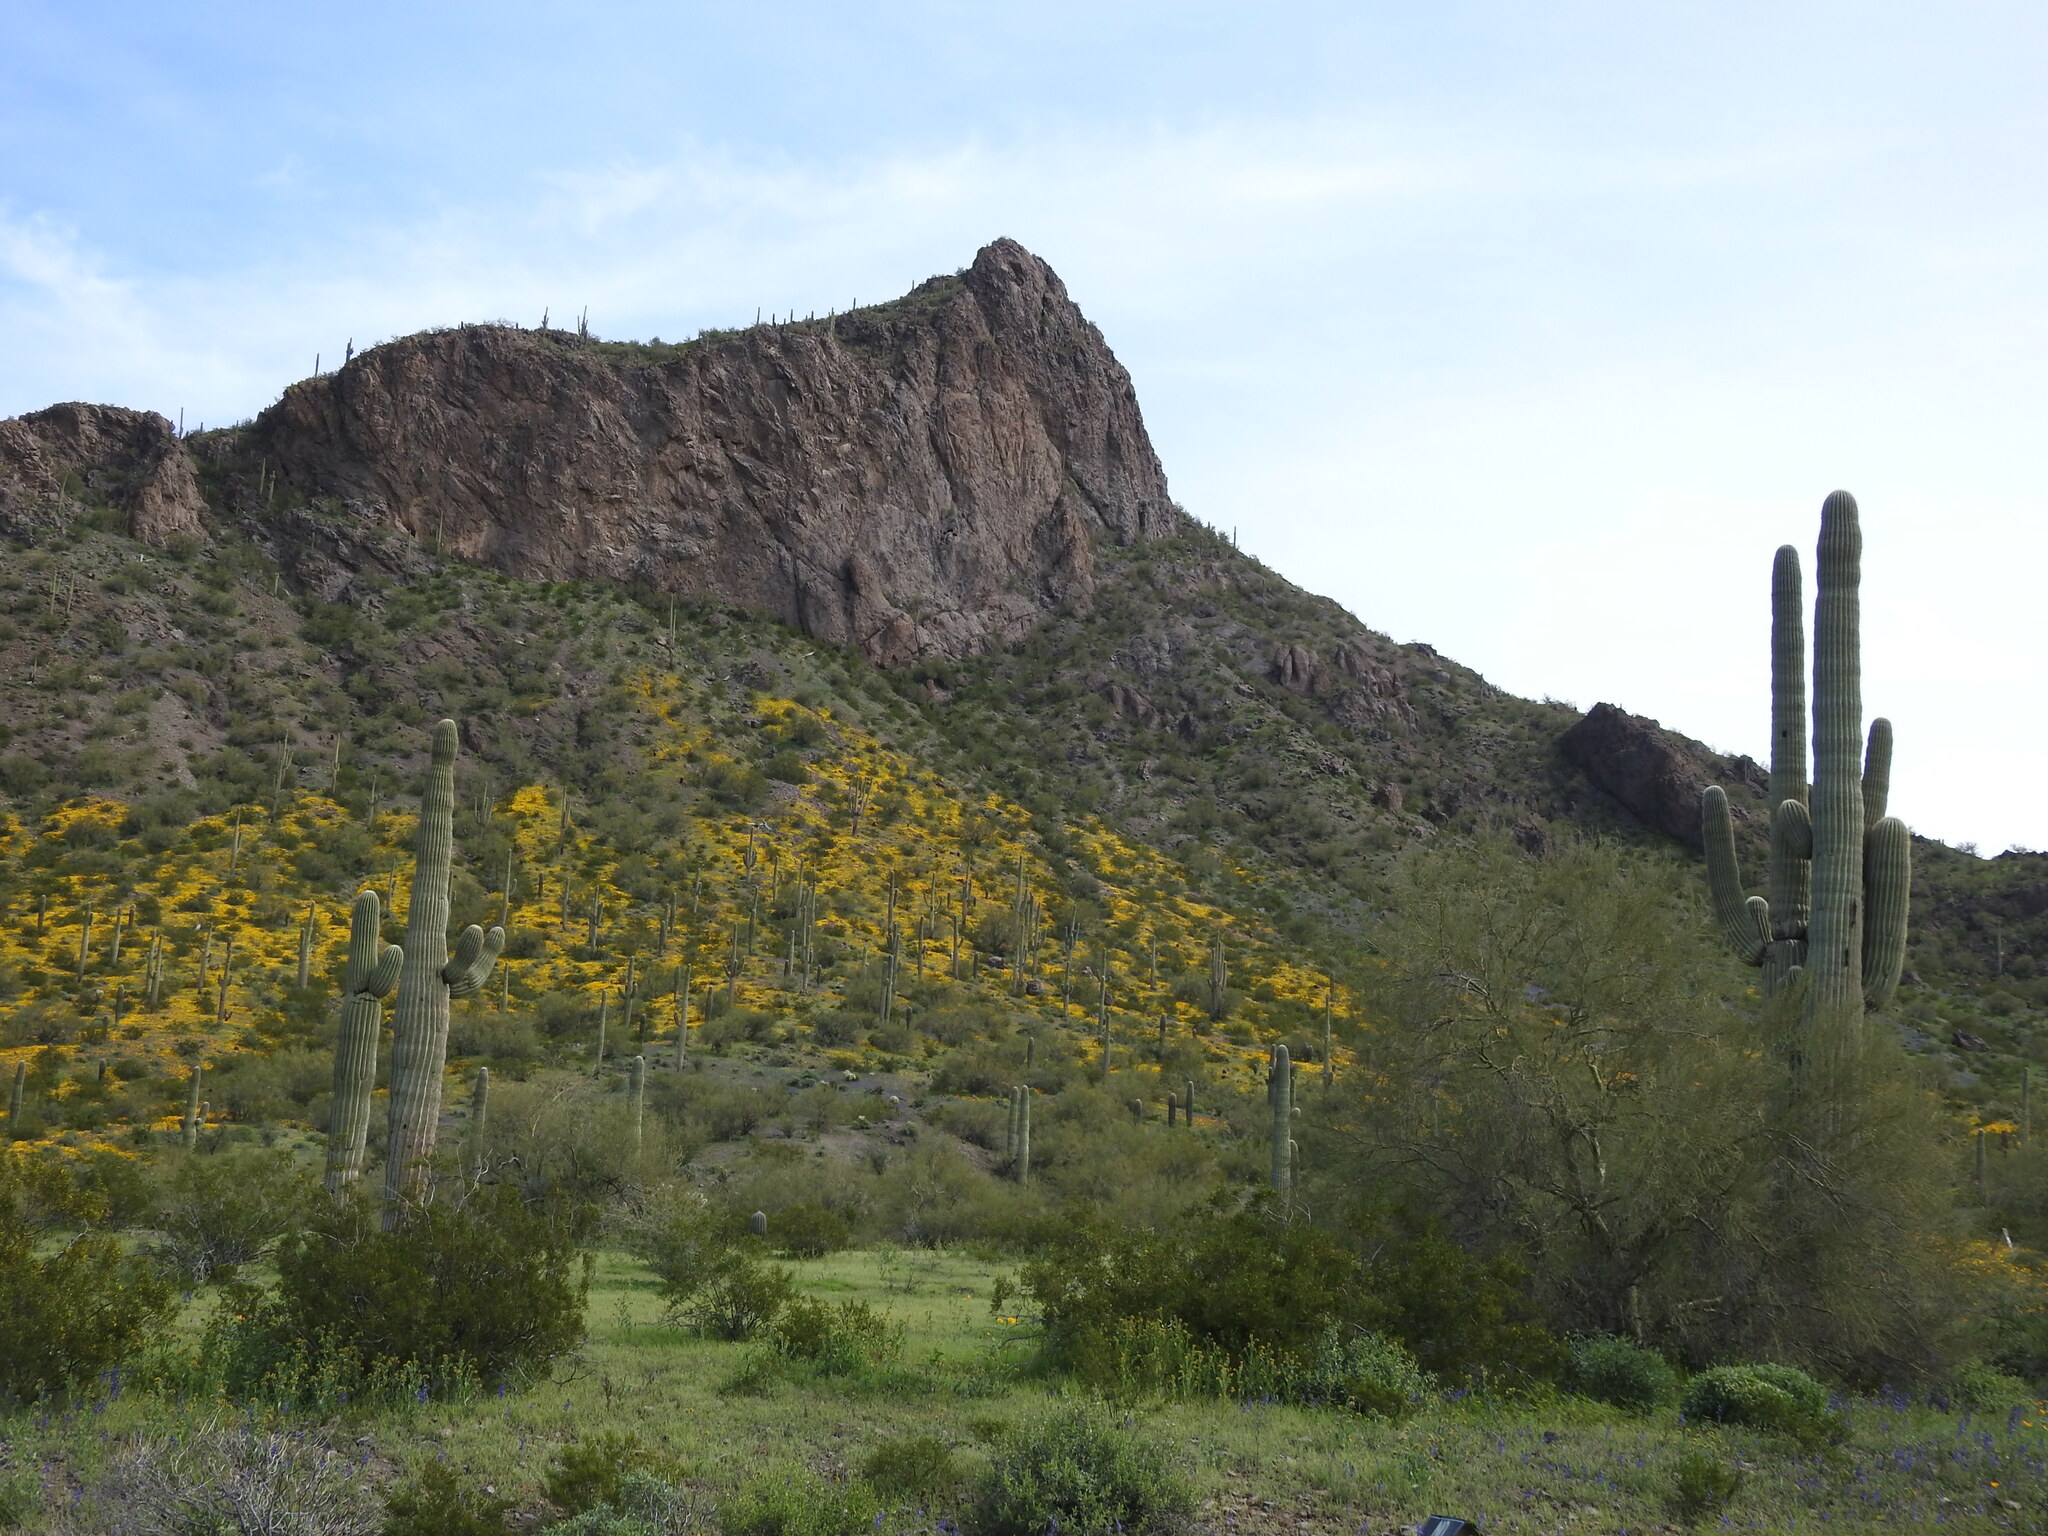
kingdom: Plantae
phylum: Tracheophyta
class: Magnoliopsida
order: Caryophyllales
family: Cactaceae
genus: Carnegiea
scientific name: Carnegiea gigantea
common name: Saguaro
